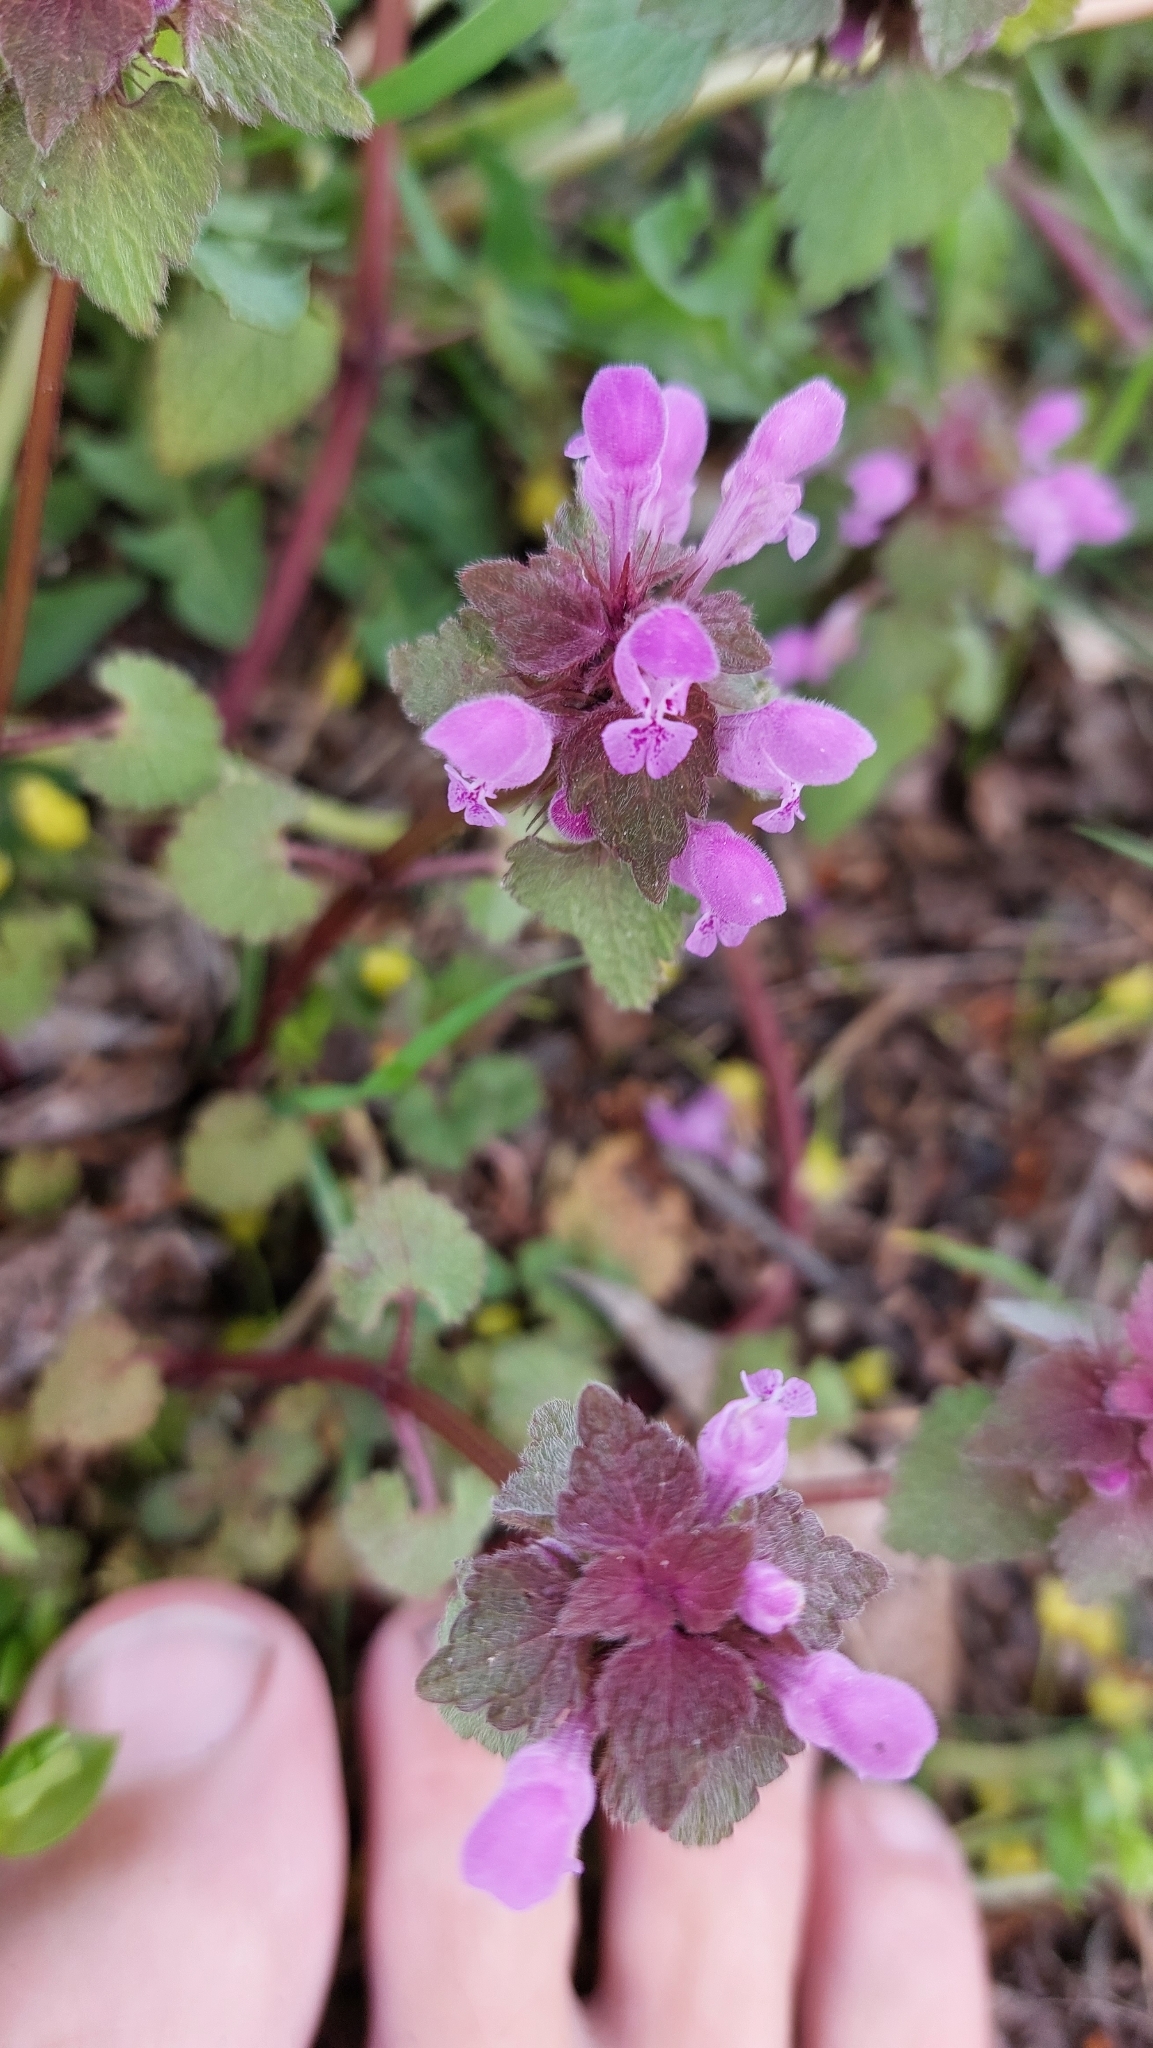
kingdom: Plantae
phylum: Tracheophyta
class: Magnoliopsida
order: Lamiales
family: Lamiaceae
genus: Lamium
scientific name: Lamium purpureum
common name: Red dead-nettle
